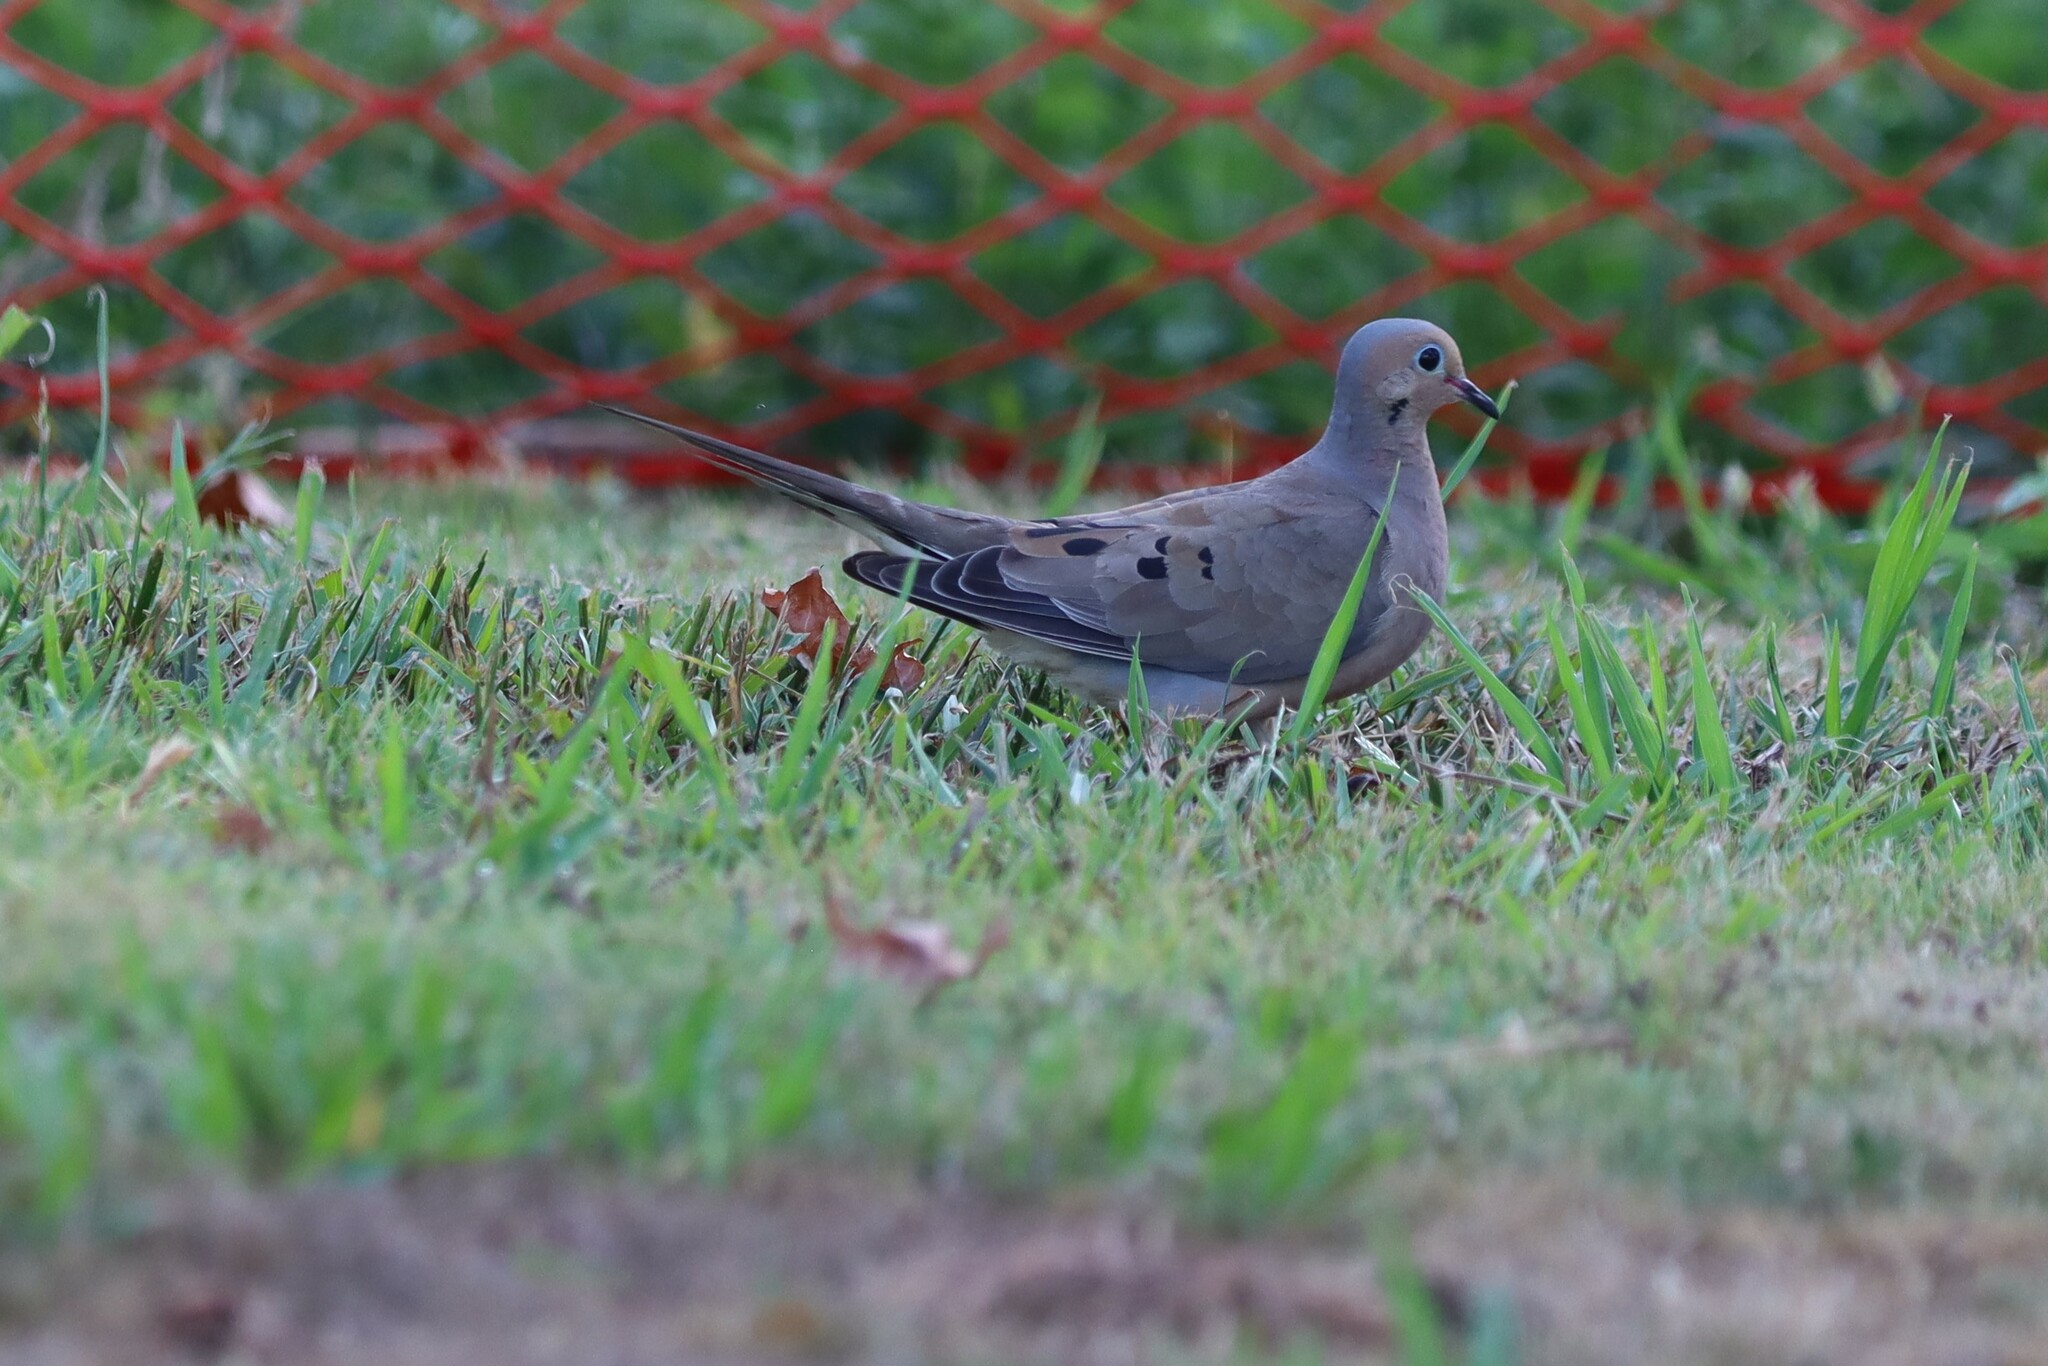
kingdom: Animalia
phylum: Chordata
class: Aves
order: Columbiformes
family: Columbidae
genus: Zenaida
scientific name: Zenaida macroura
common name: Mourning dove
